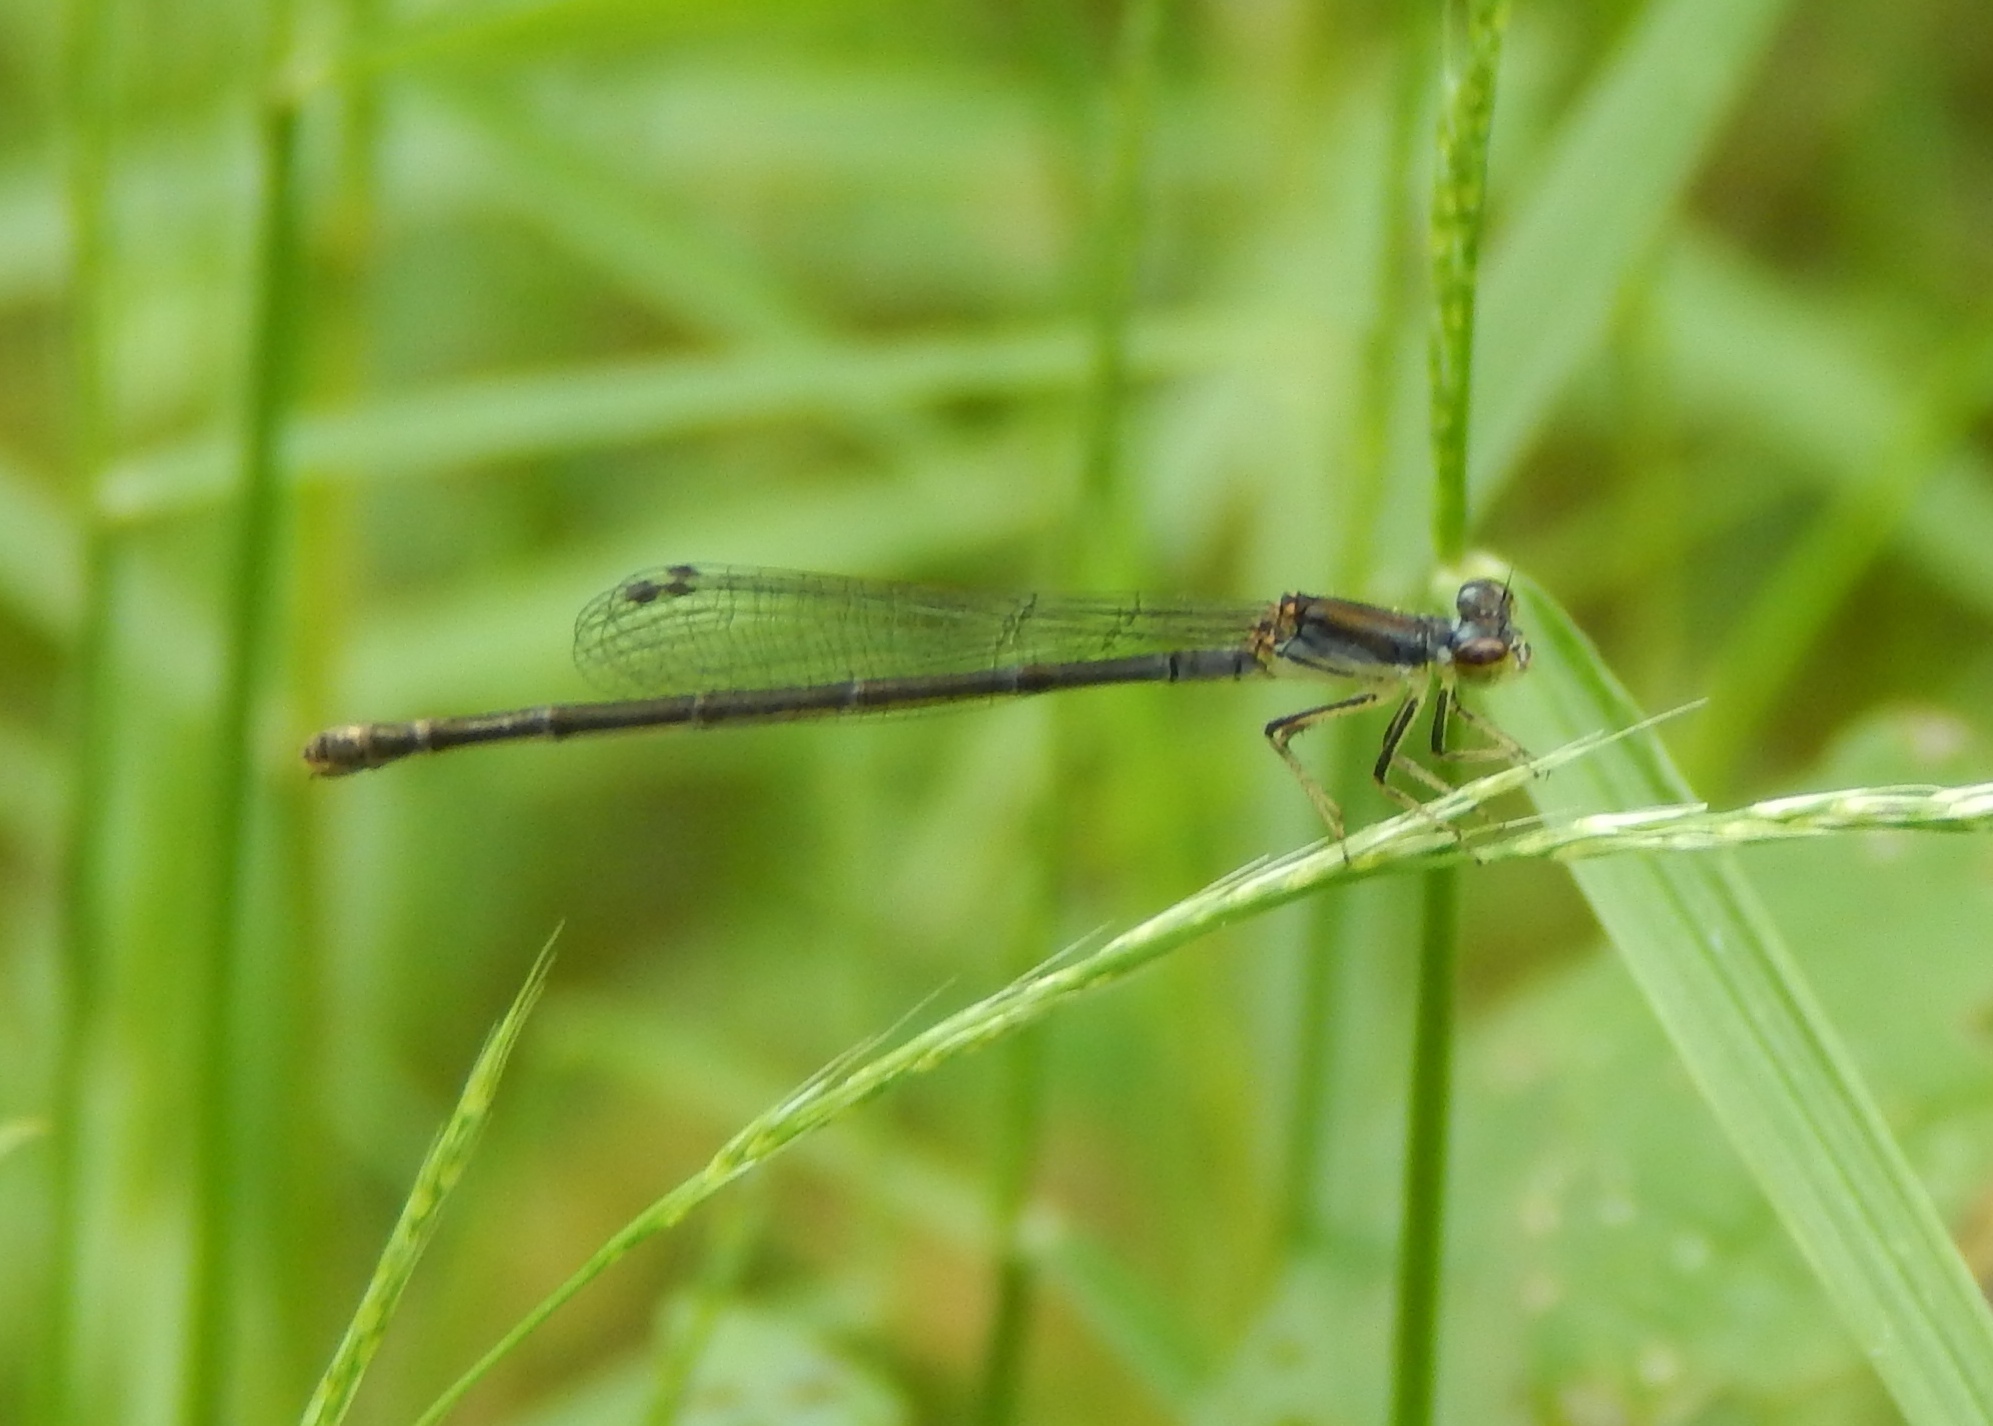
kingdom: Animalia
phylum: Arthropoda
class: Insecta
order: Odonata
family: Coenagrionidae
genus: Ischnura
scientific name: Ischnura posita
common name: Fragile forktail
